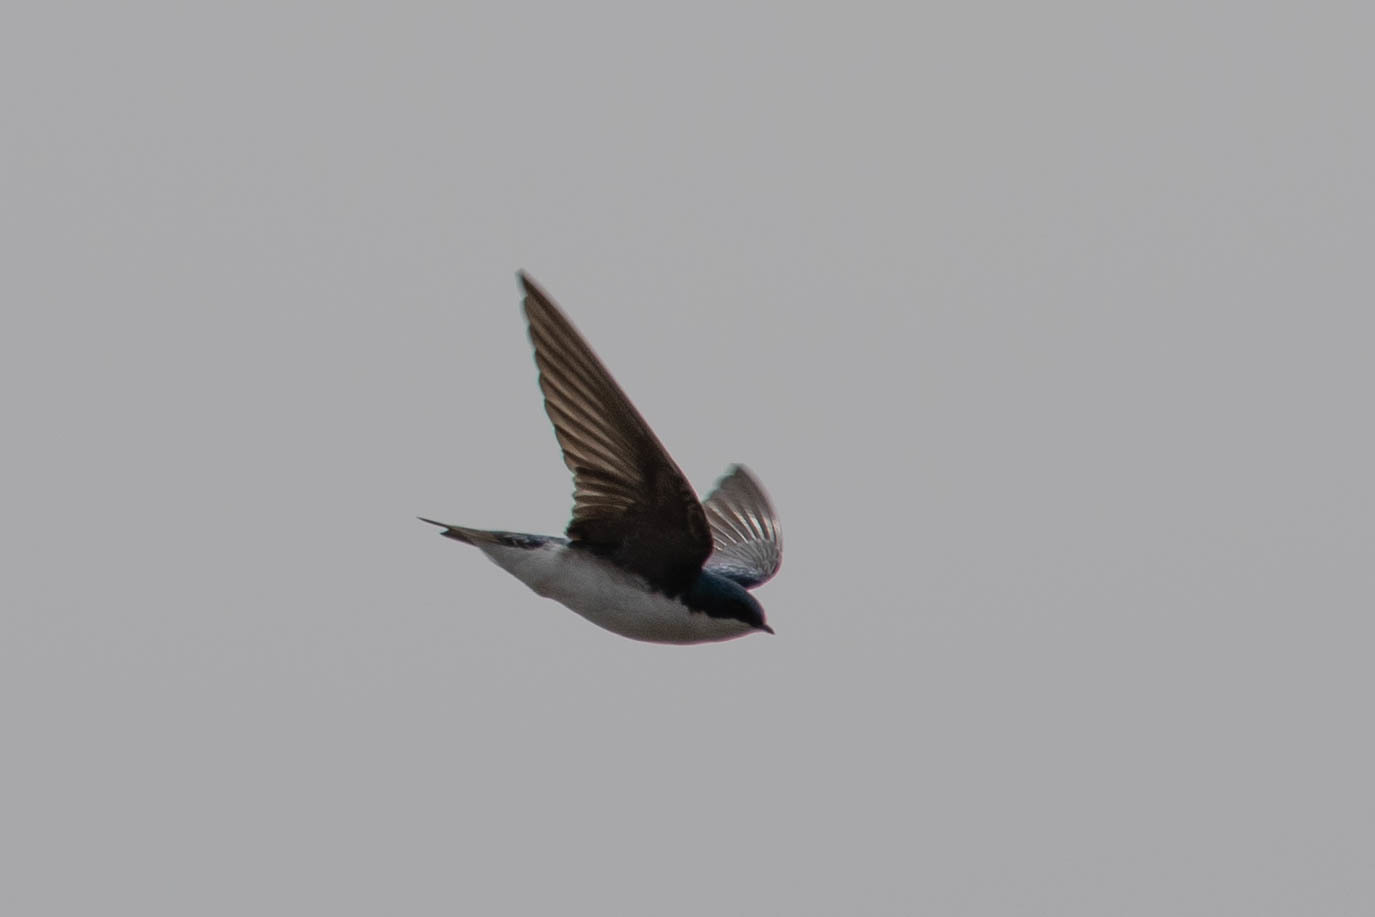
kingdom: Animalia
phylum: Chordata
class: Aves
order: Passeriformes
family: Hirundinidae
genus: Tachycineta
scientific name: Tachycineta bicolor
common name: Tree swallow
